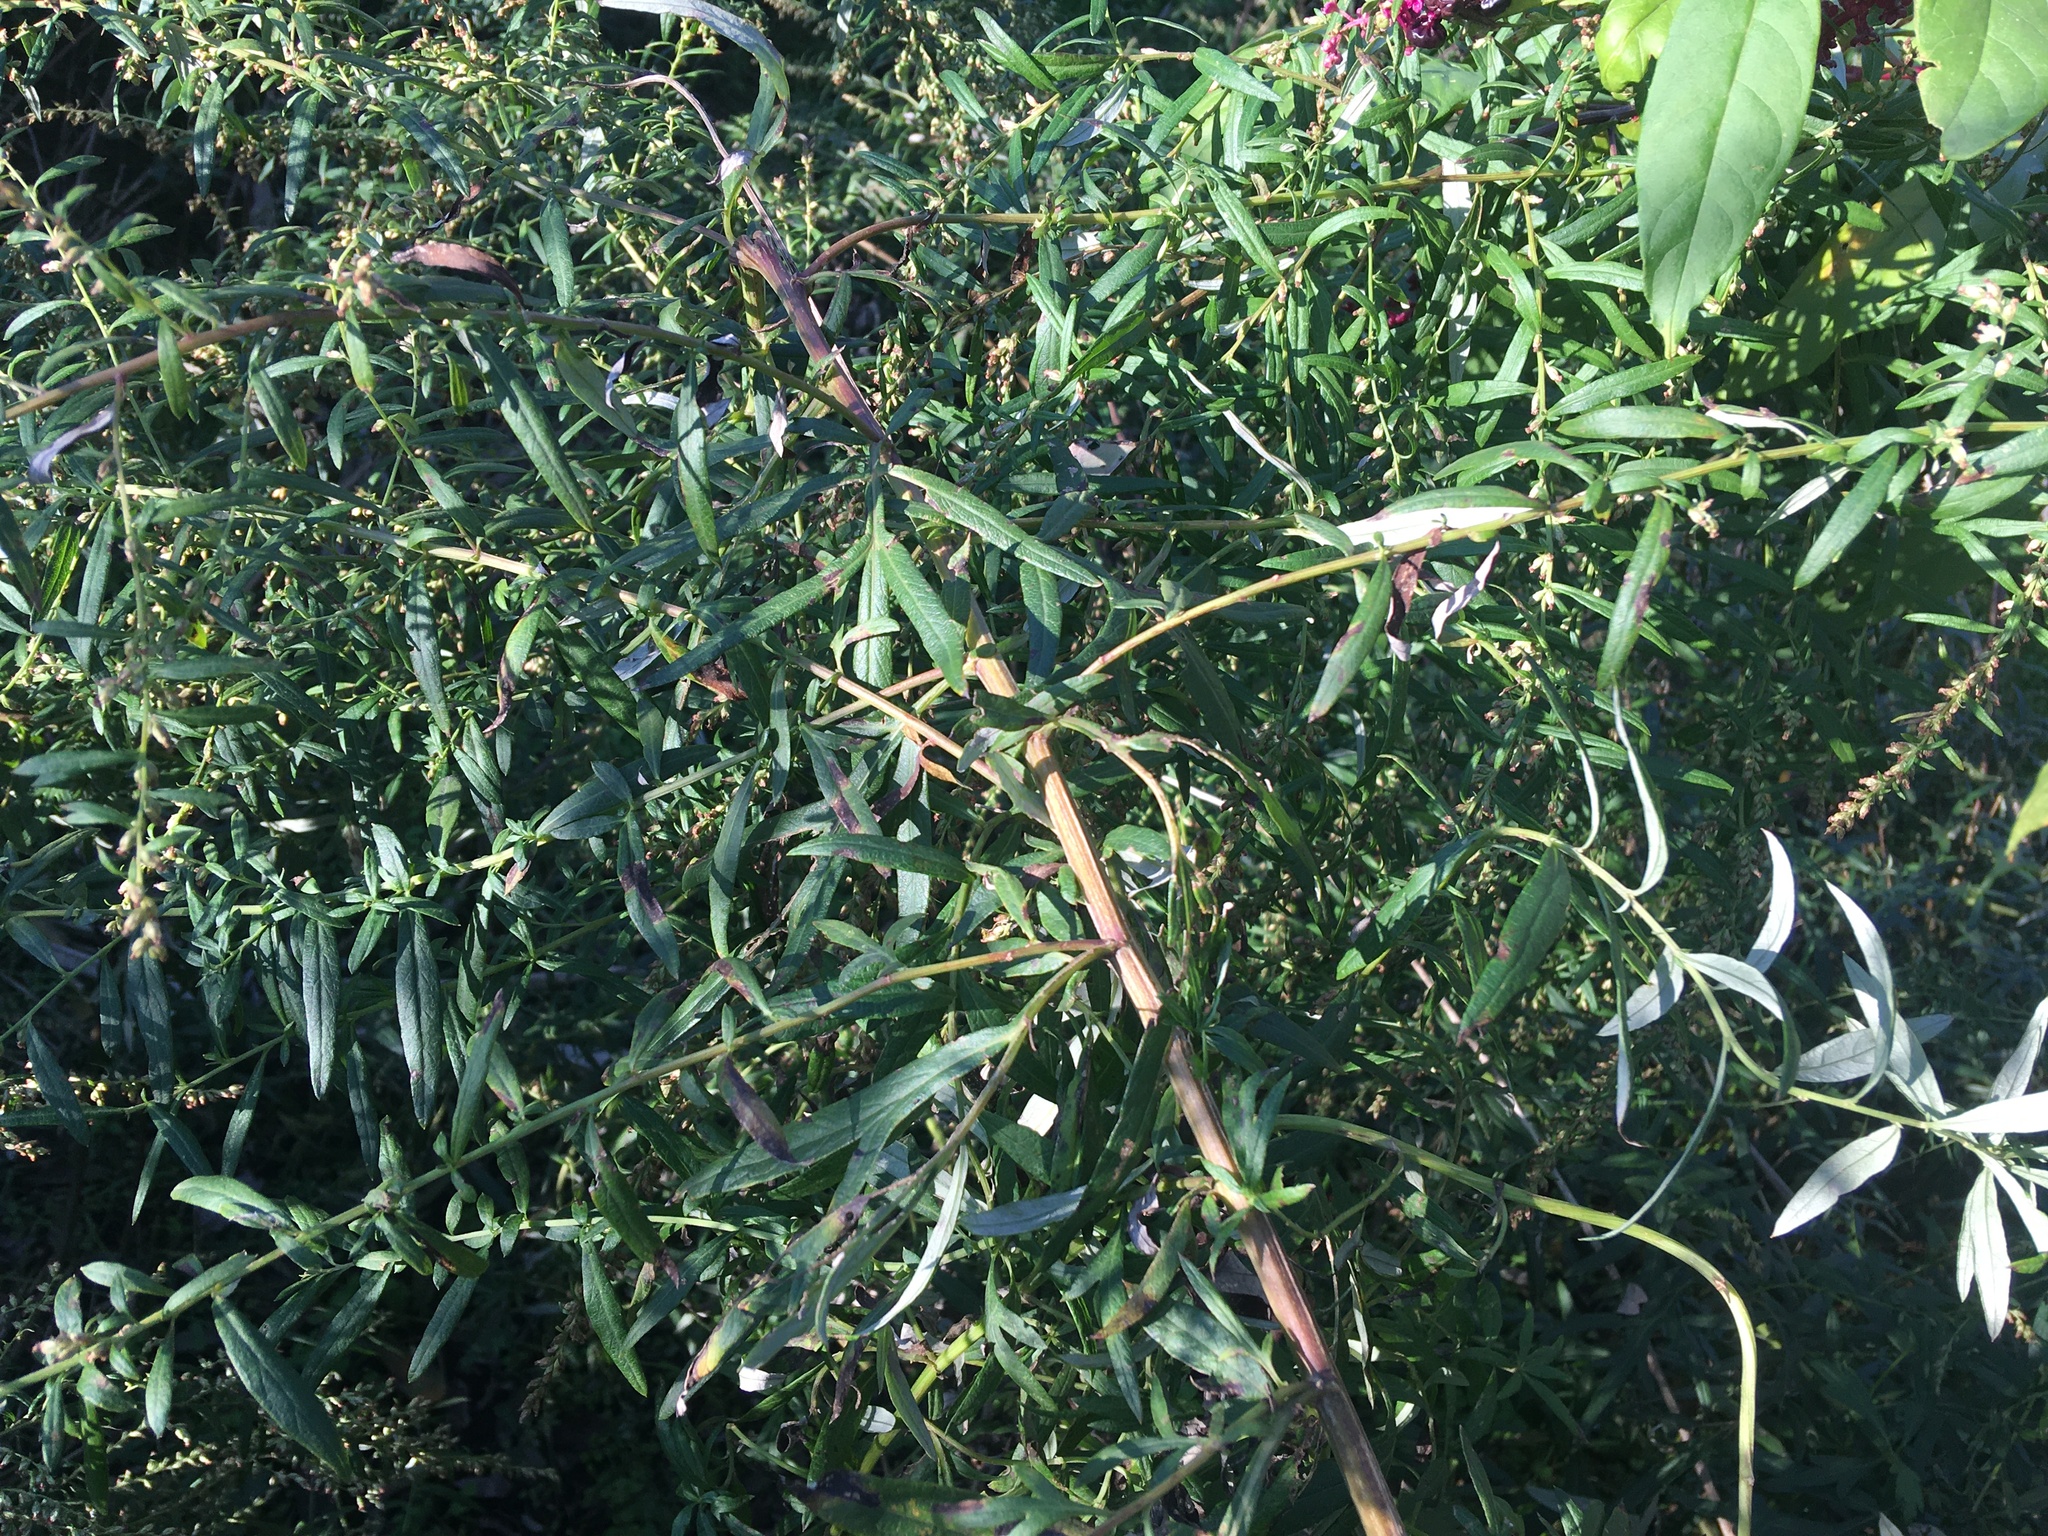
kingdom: Plantae
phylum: Tracheophyta
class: Magnoliopsida
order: Asterales
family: Asteraceae
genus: Artemisia
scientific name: Artemisia vulgaris
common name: Mugwort
